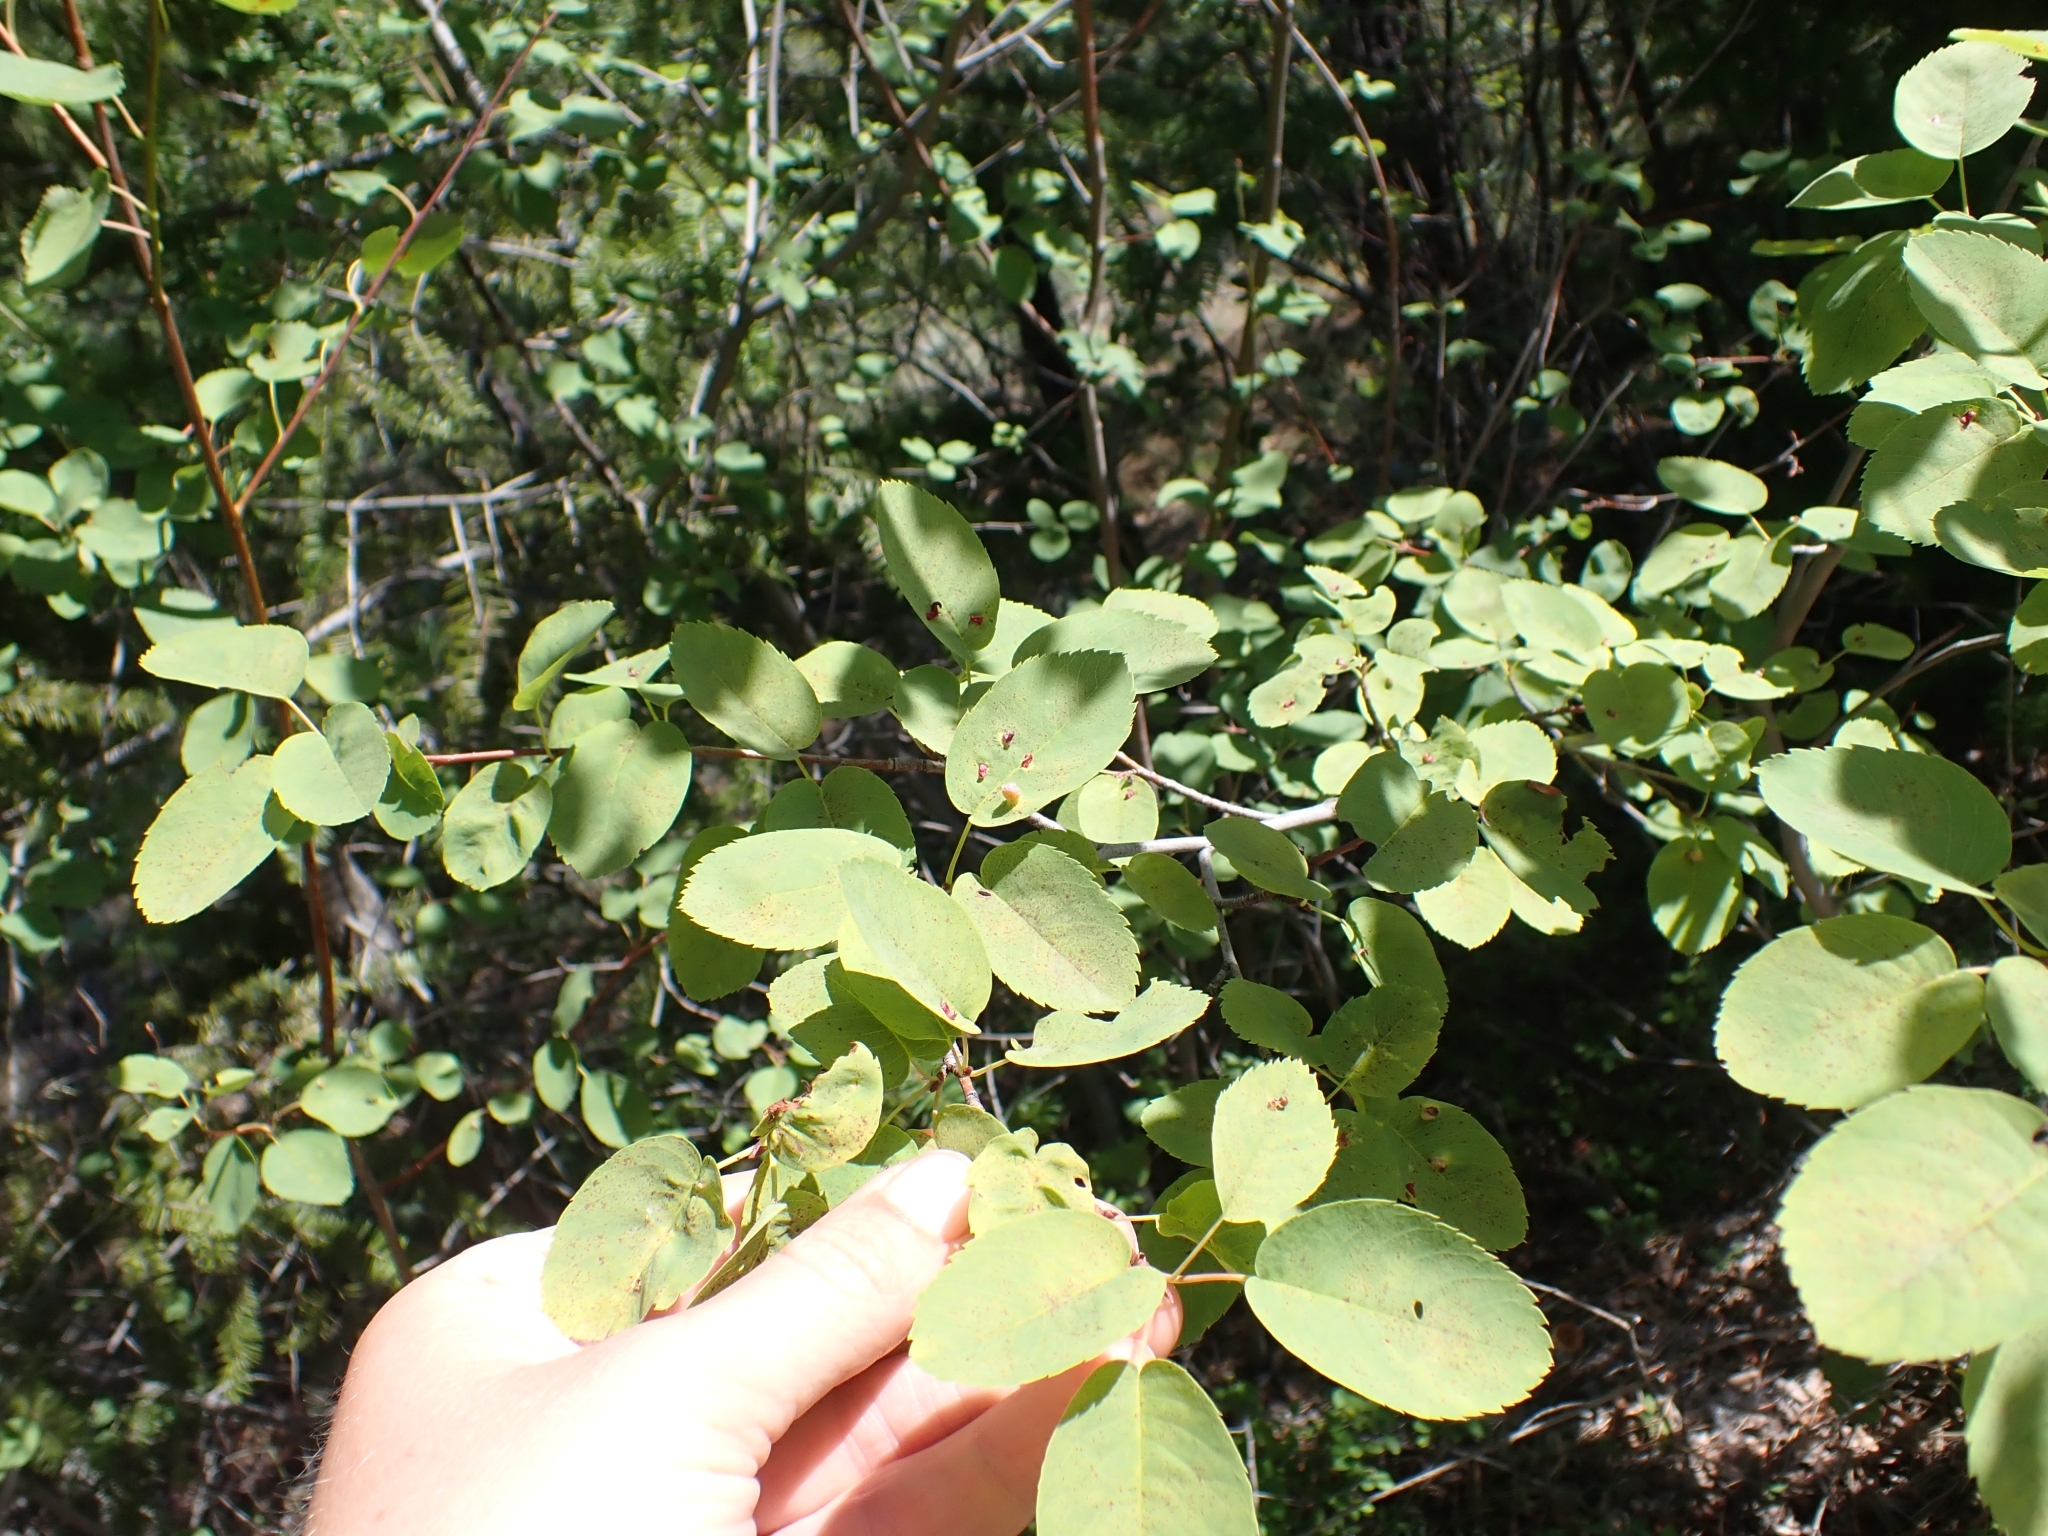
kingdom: Plantae
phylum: Tracheophyta
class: Magnoliopsida
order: Rosales
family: Rosaceae
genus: Amelanchier
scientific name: Amelanchier alnifolia
